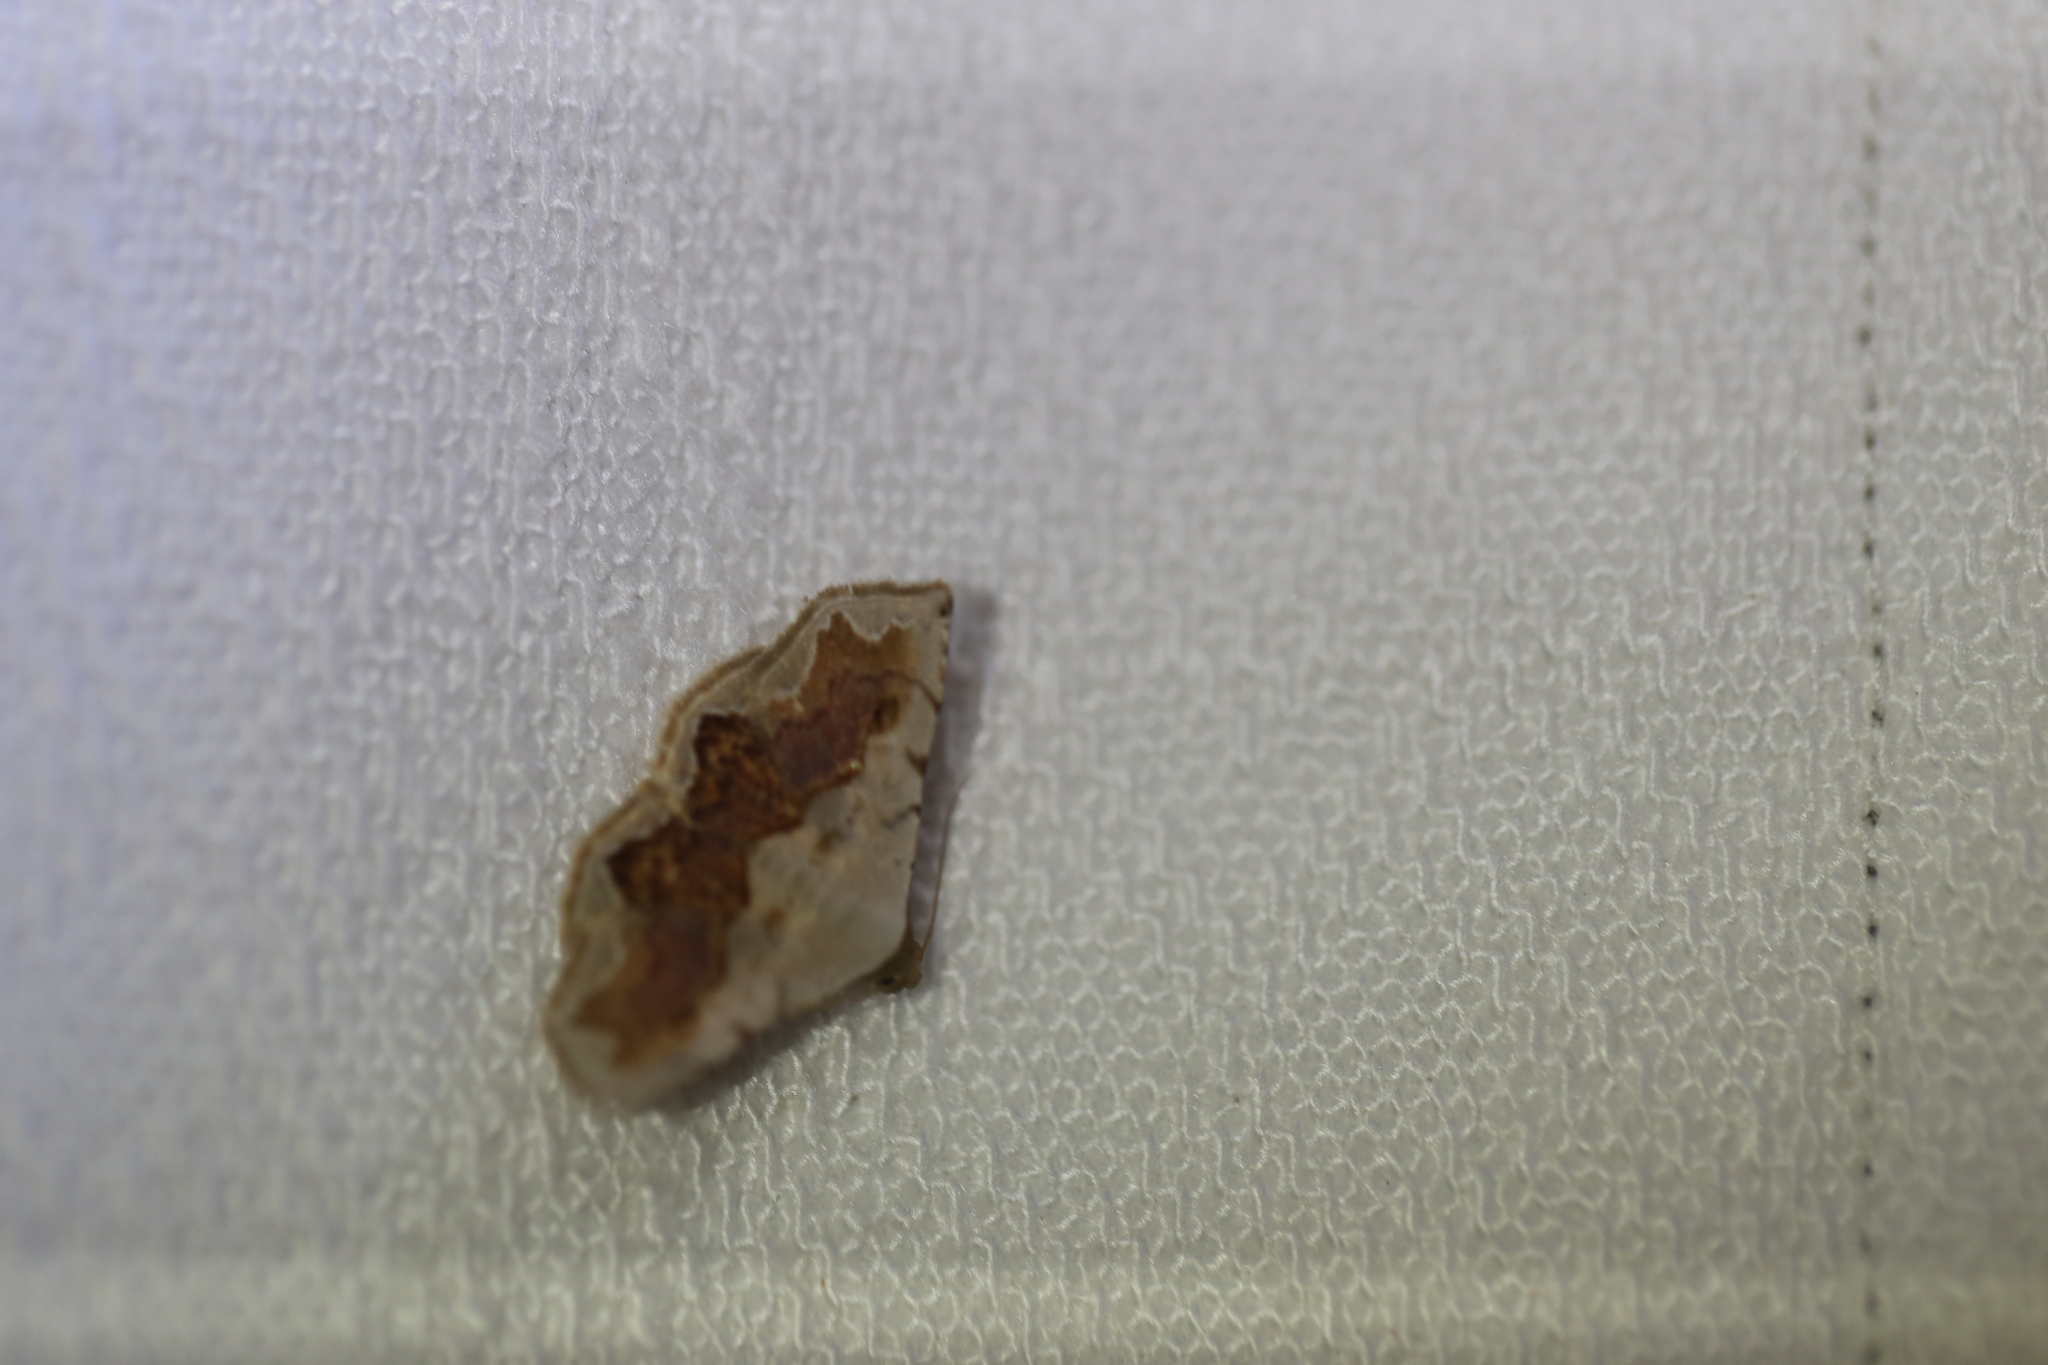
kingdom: Animalia
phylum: Arthropoda
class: Insecta
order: Lepidoptera
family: Noctuidae
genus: Eublemma
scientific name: Eublemma
